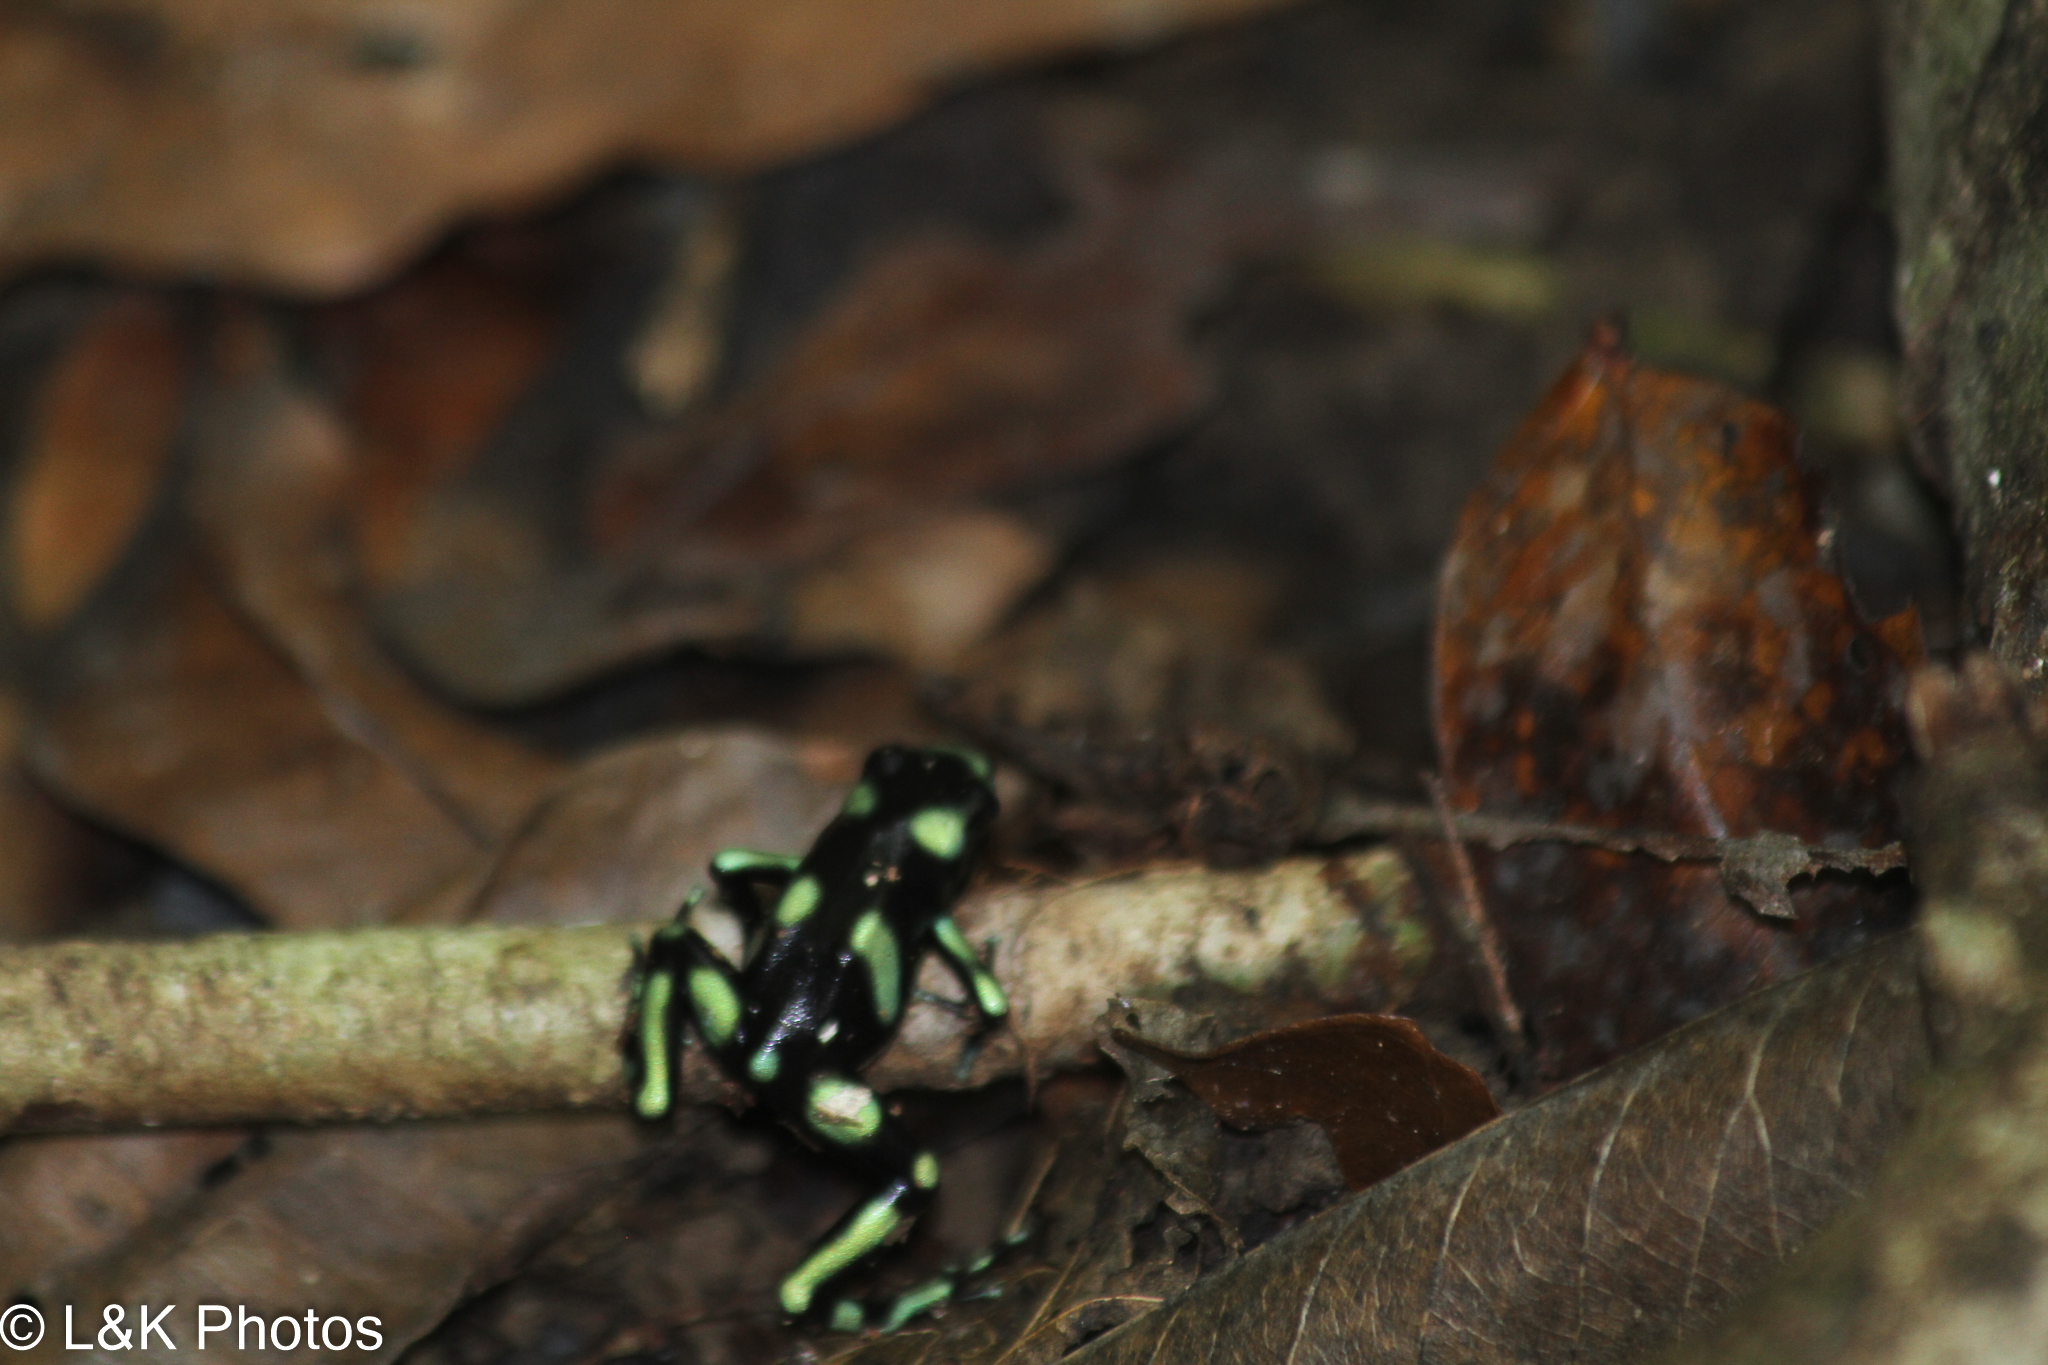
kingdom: Animalia
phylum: Chordata
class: Amphibia
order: Anura
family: Dendrobatidae
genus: Dendrobates
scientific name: Dendrobates auratus
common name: Green and black poison dart frog
